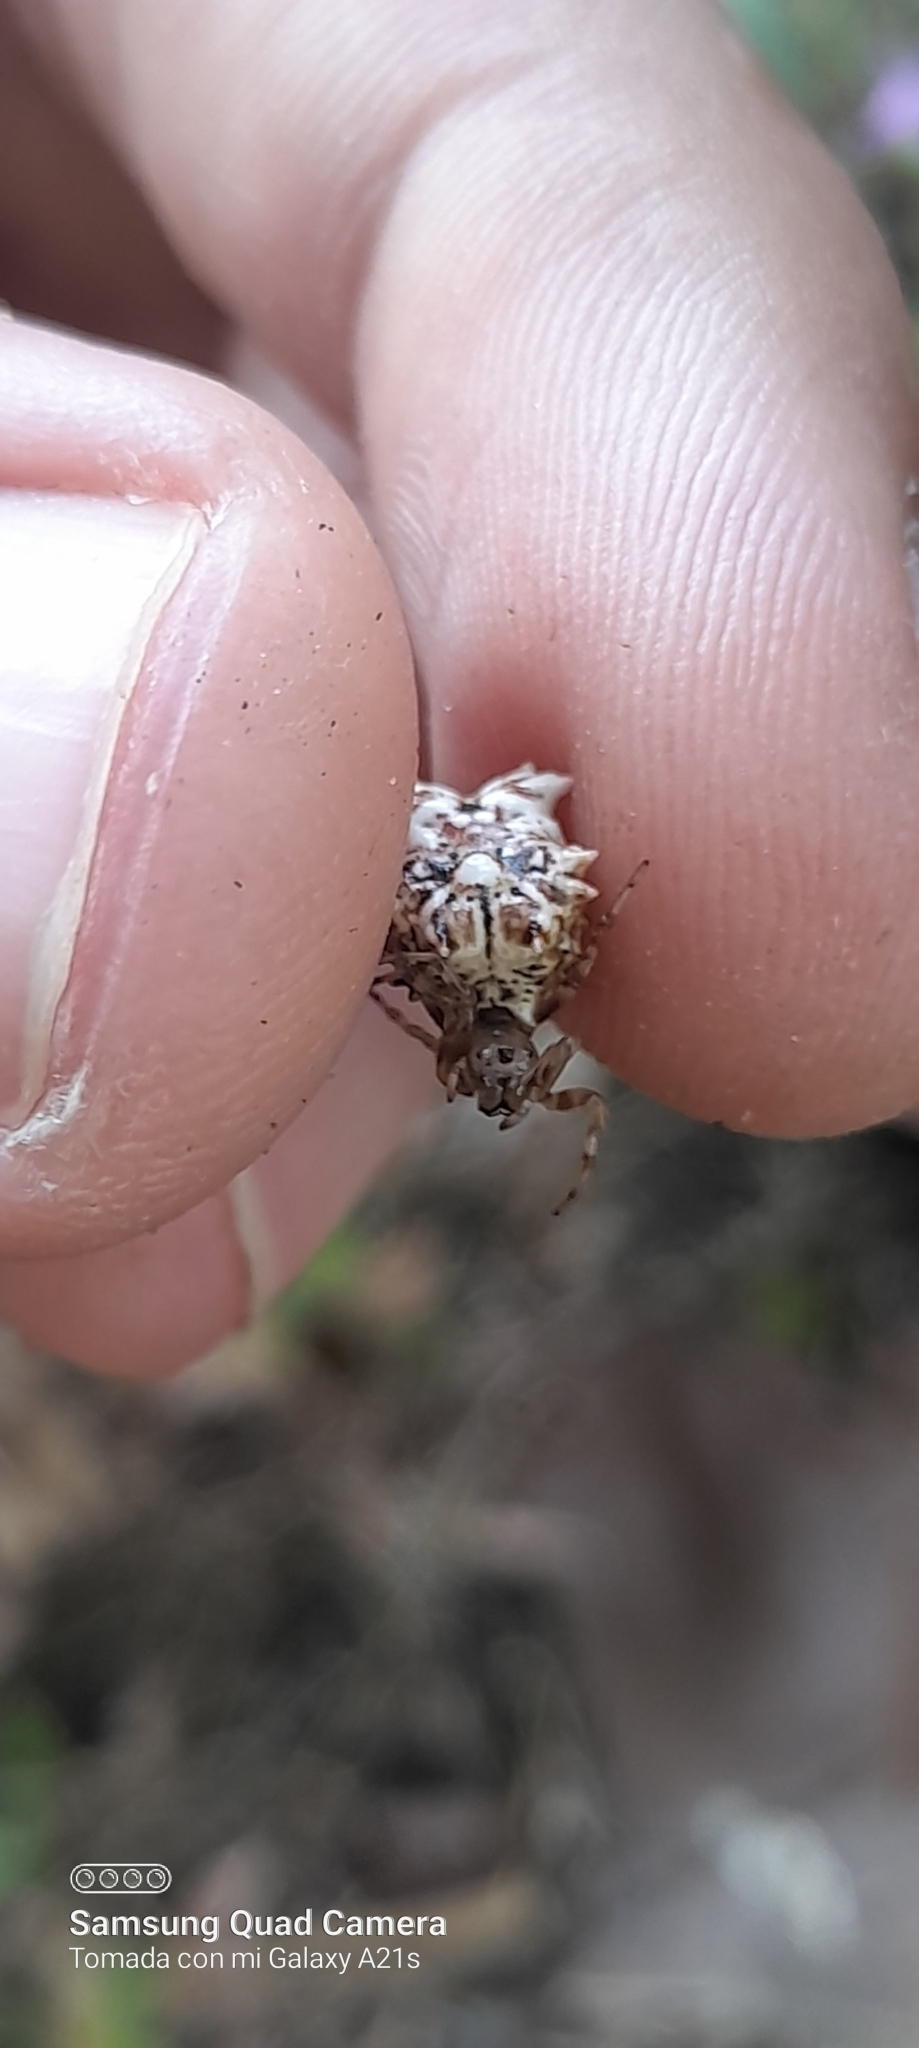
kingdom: Animalia
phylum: Arthropoda
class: Arachnida
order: Araneae
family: Araneidae
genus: Micrathena
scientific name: Micrathena horrida
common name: Orb weavers
